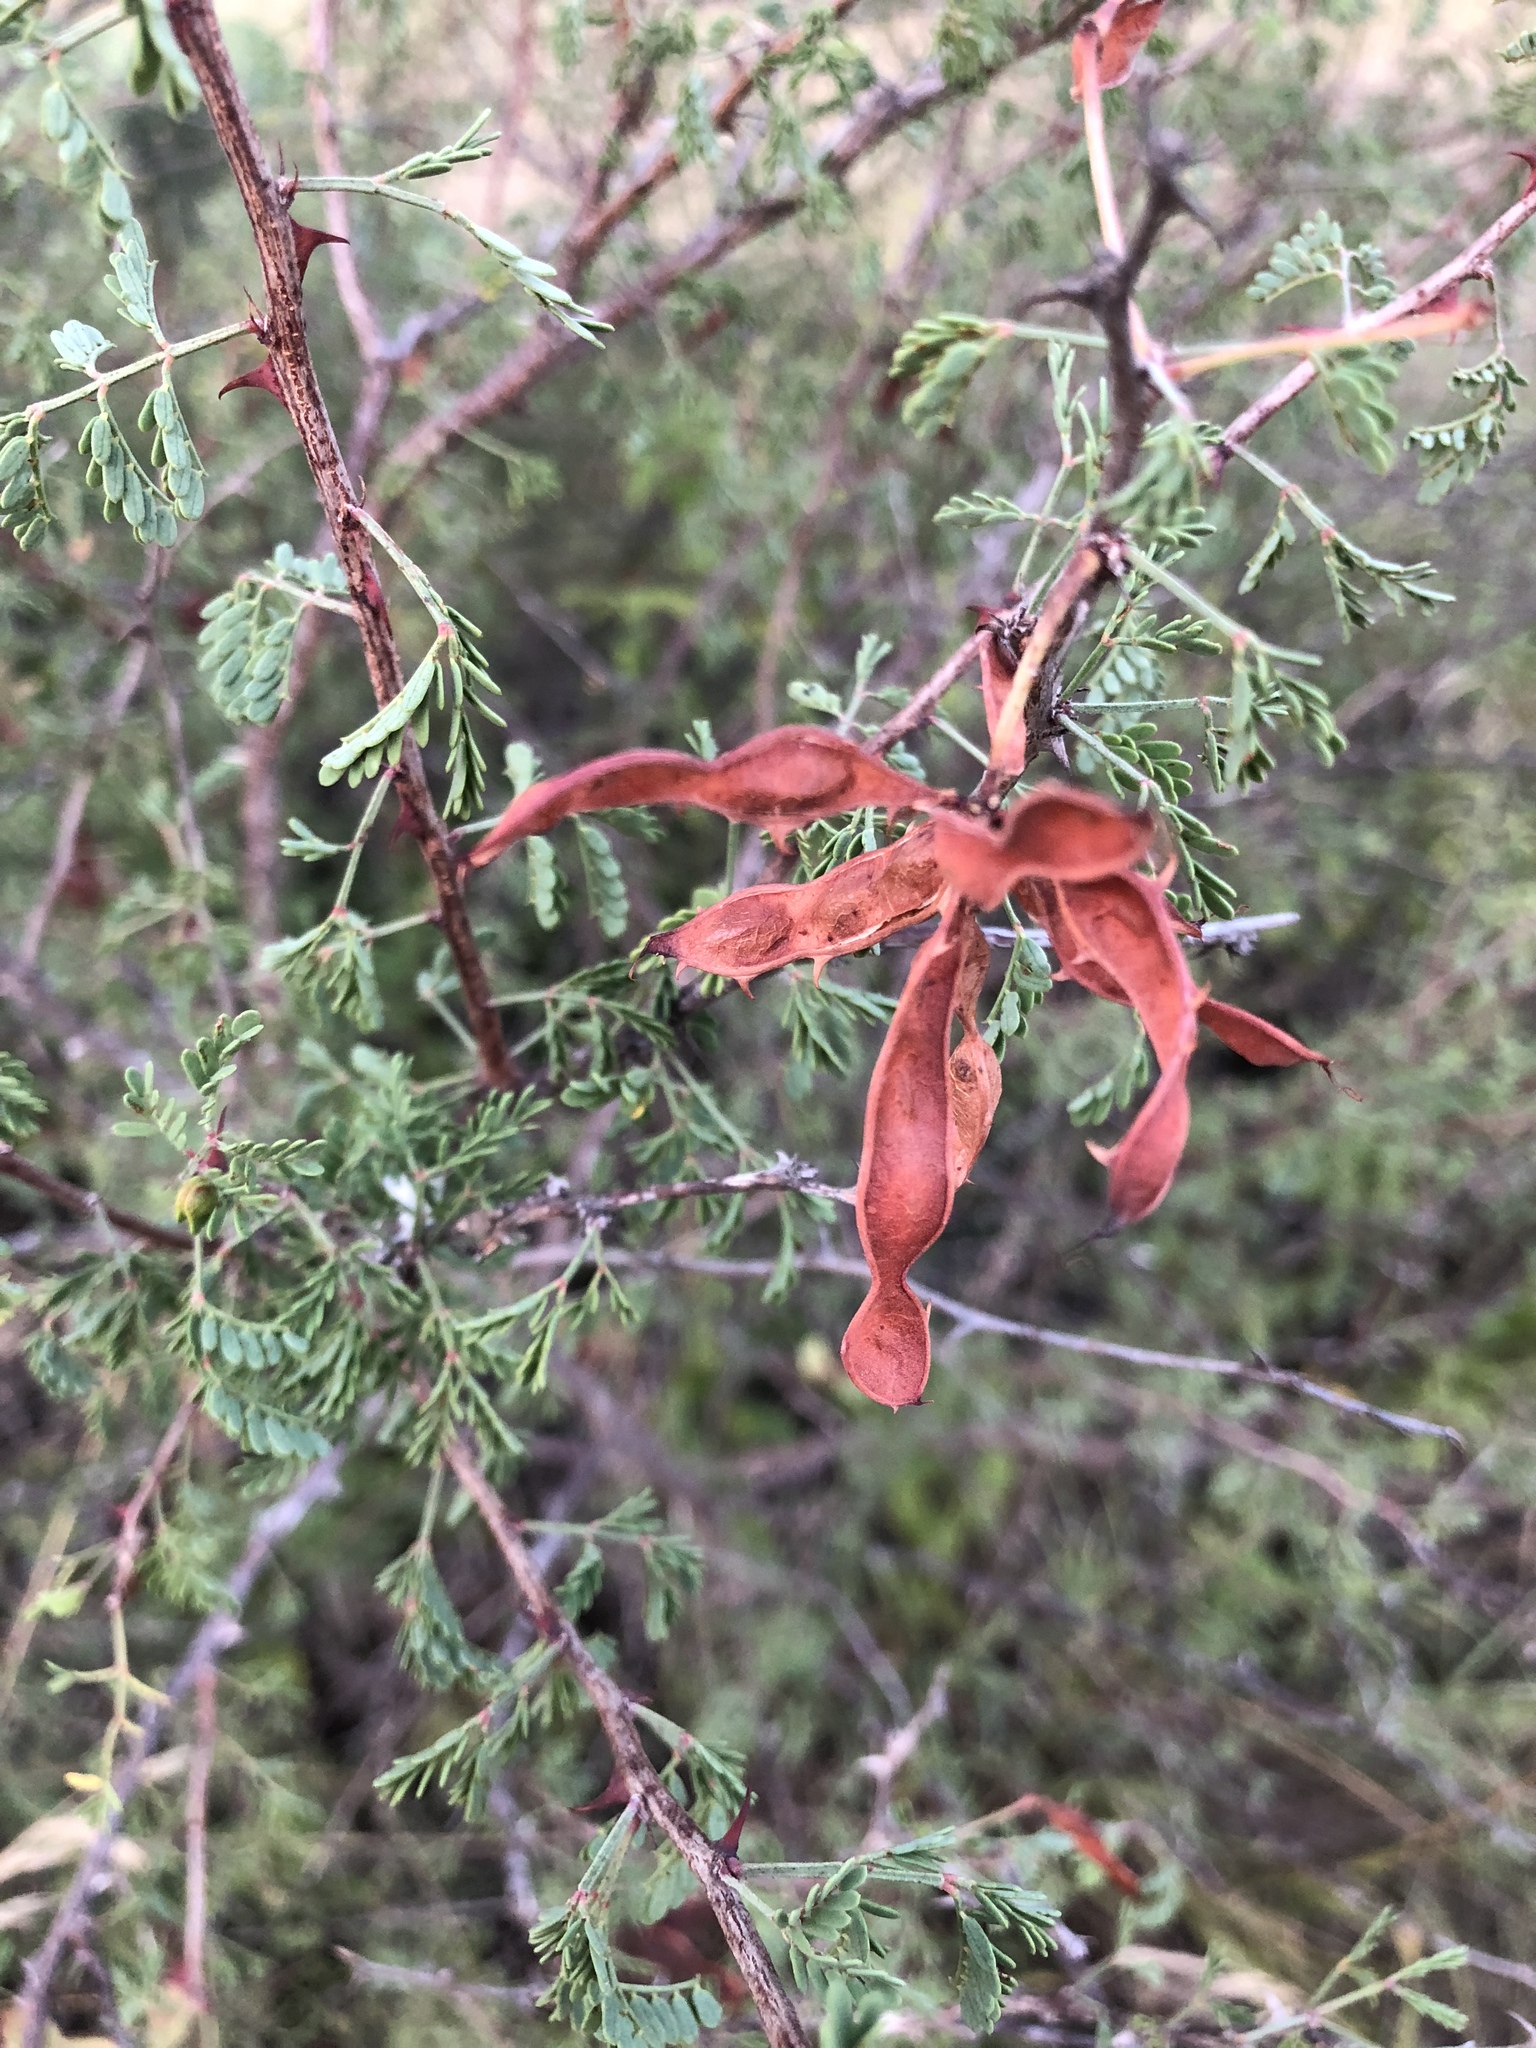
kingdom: Plantae
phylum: Tracheophyta
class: Magnoliopsida
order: Fabales
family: Fabaceae
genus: Mimosa
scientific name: Mimosa texana
